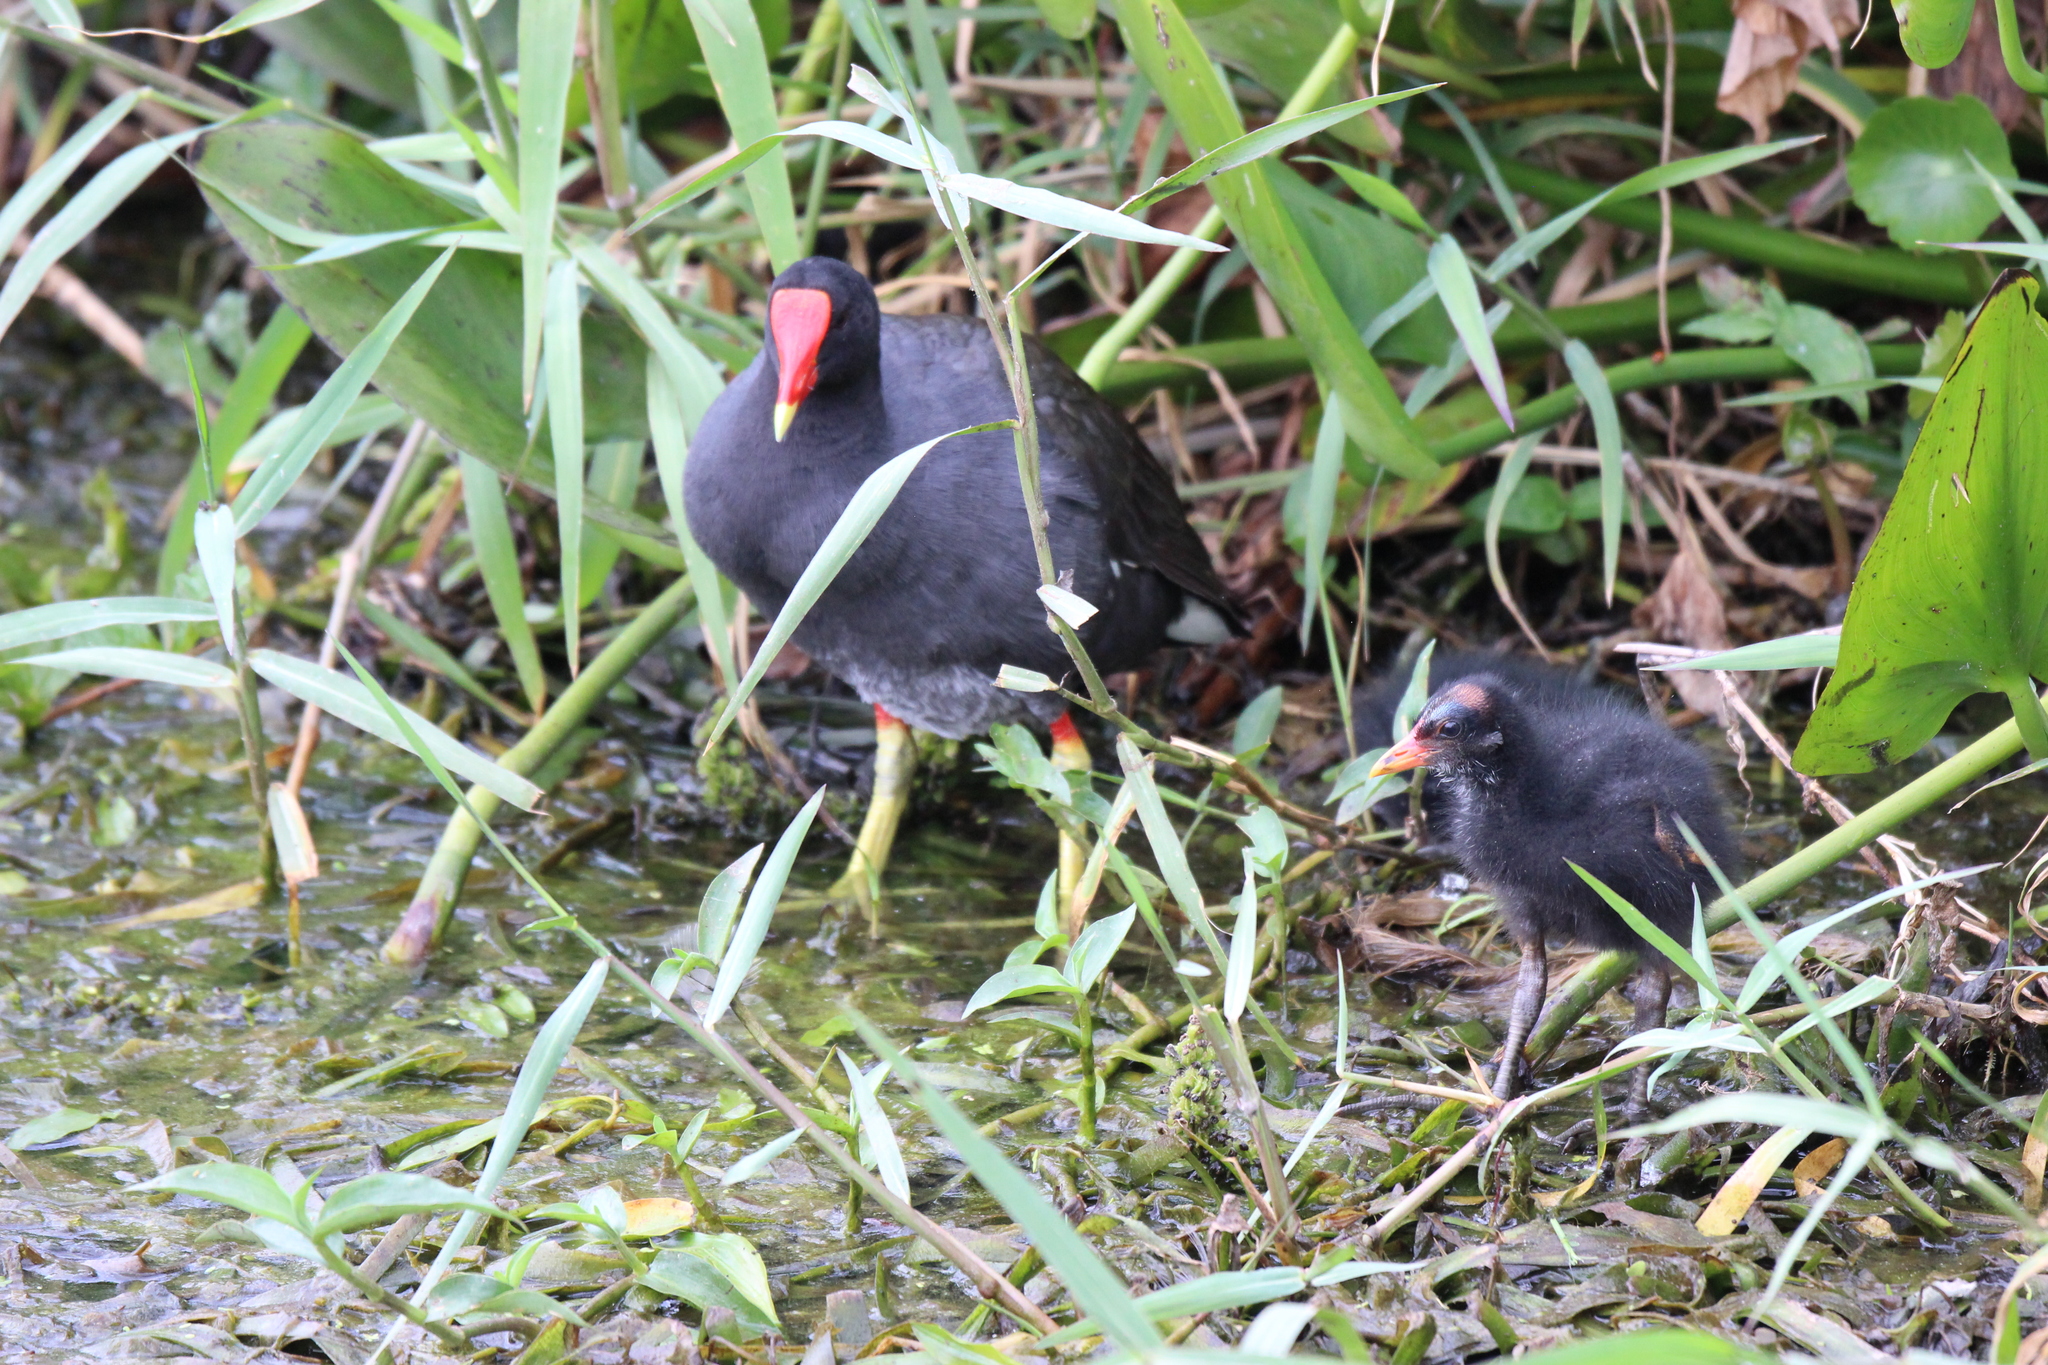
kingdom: Animalia
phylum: Chordata
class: Aves
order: Gruiformes
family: Rallidae
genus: Gallinula
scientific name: Gallinula chloropus
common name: Common moorhen
